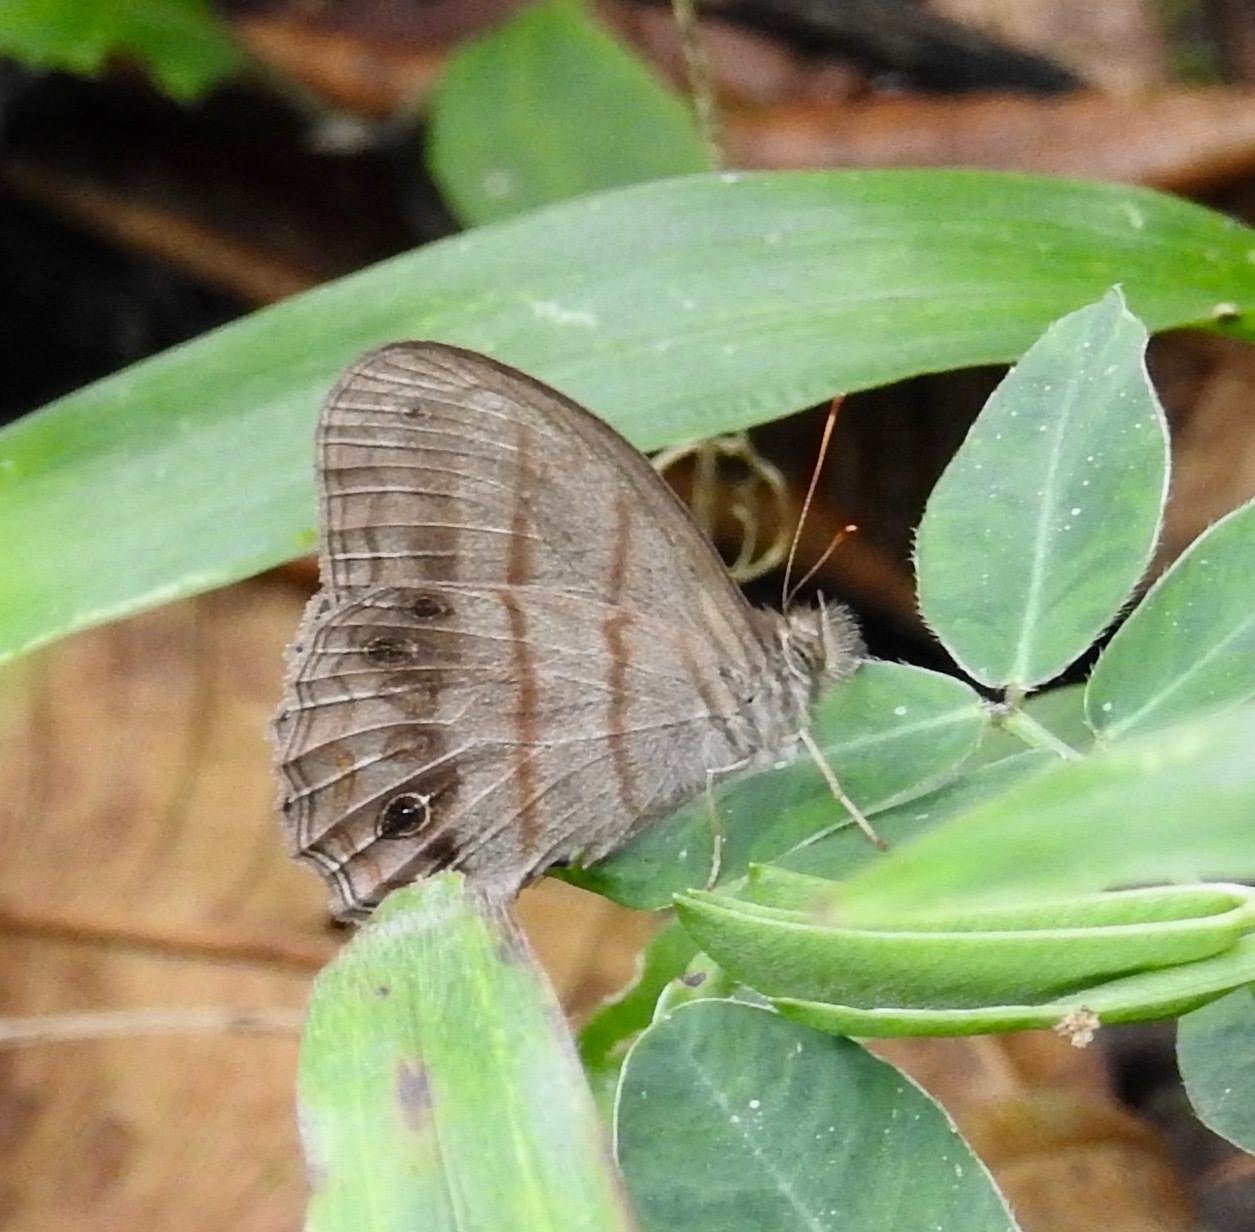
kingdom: Animalia
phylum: Arthropoda
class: Insecta
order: Lepidoptera
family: Nymphalidae
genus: Magneuptychia
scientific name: Magneuptychia libye
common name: Blue-gray satyr
